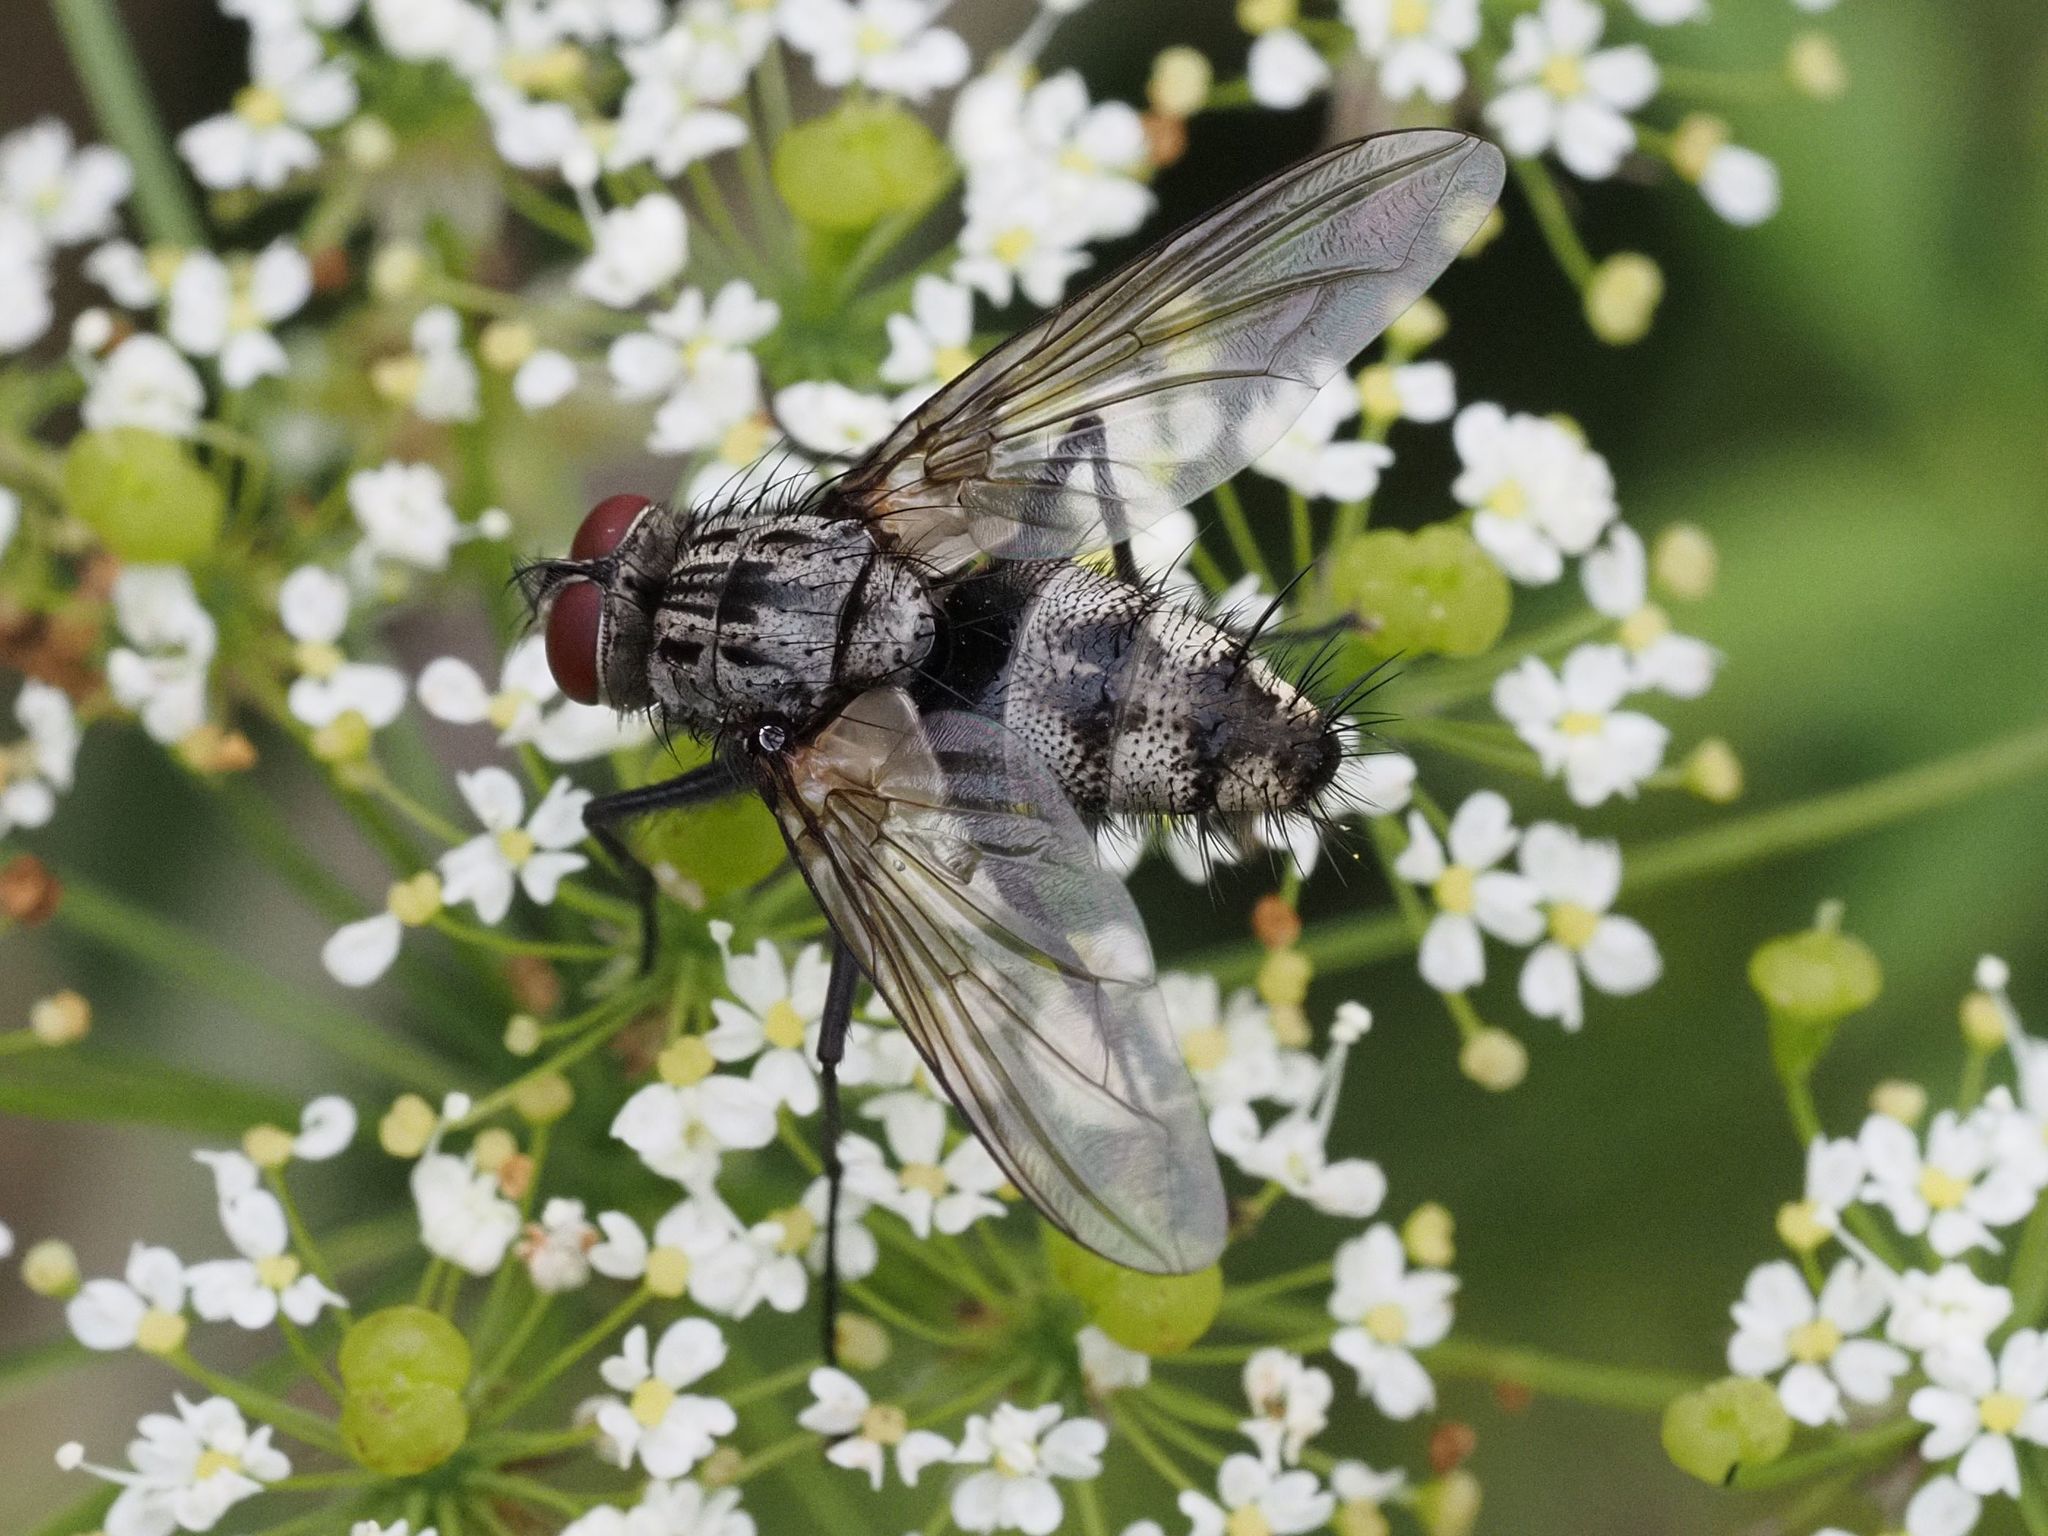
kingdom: Animalia
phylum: Arthropoda
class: Insecta
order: Diptera
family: Tachinidae
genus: Dinera
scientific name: Dinera ferina
